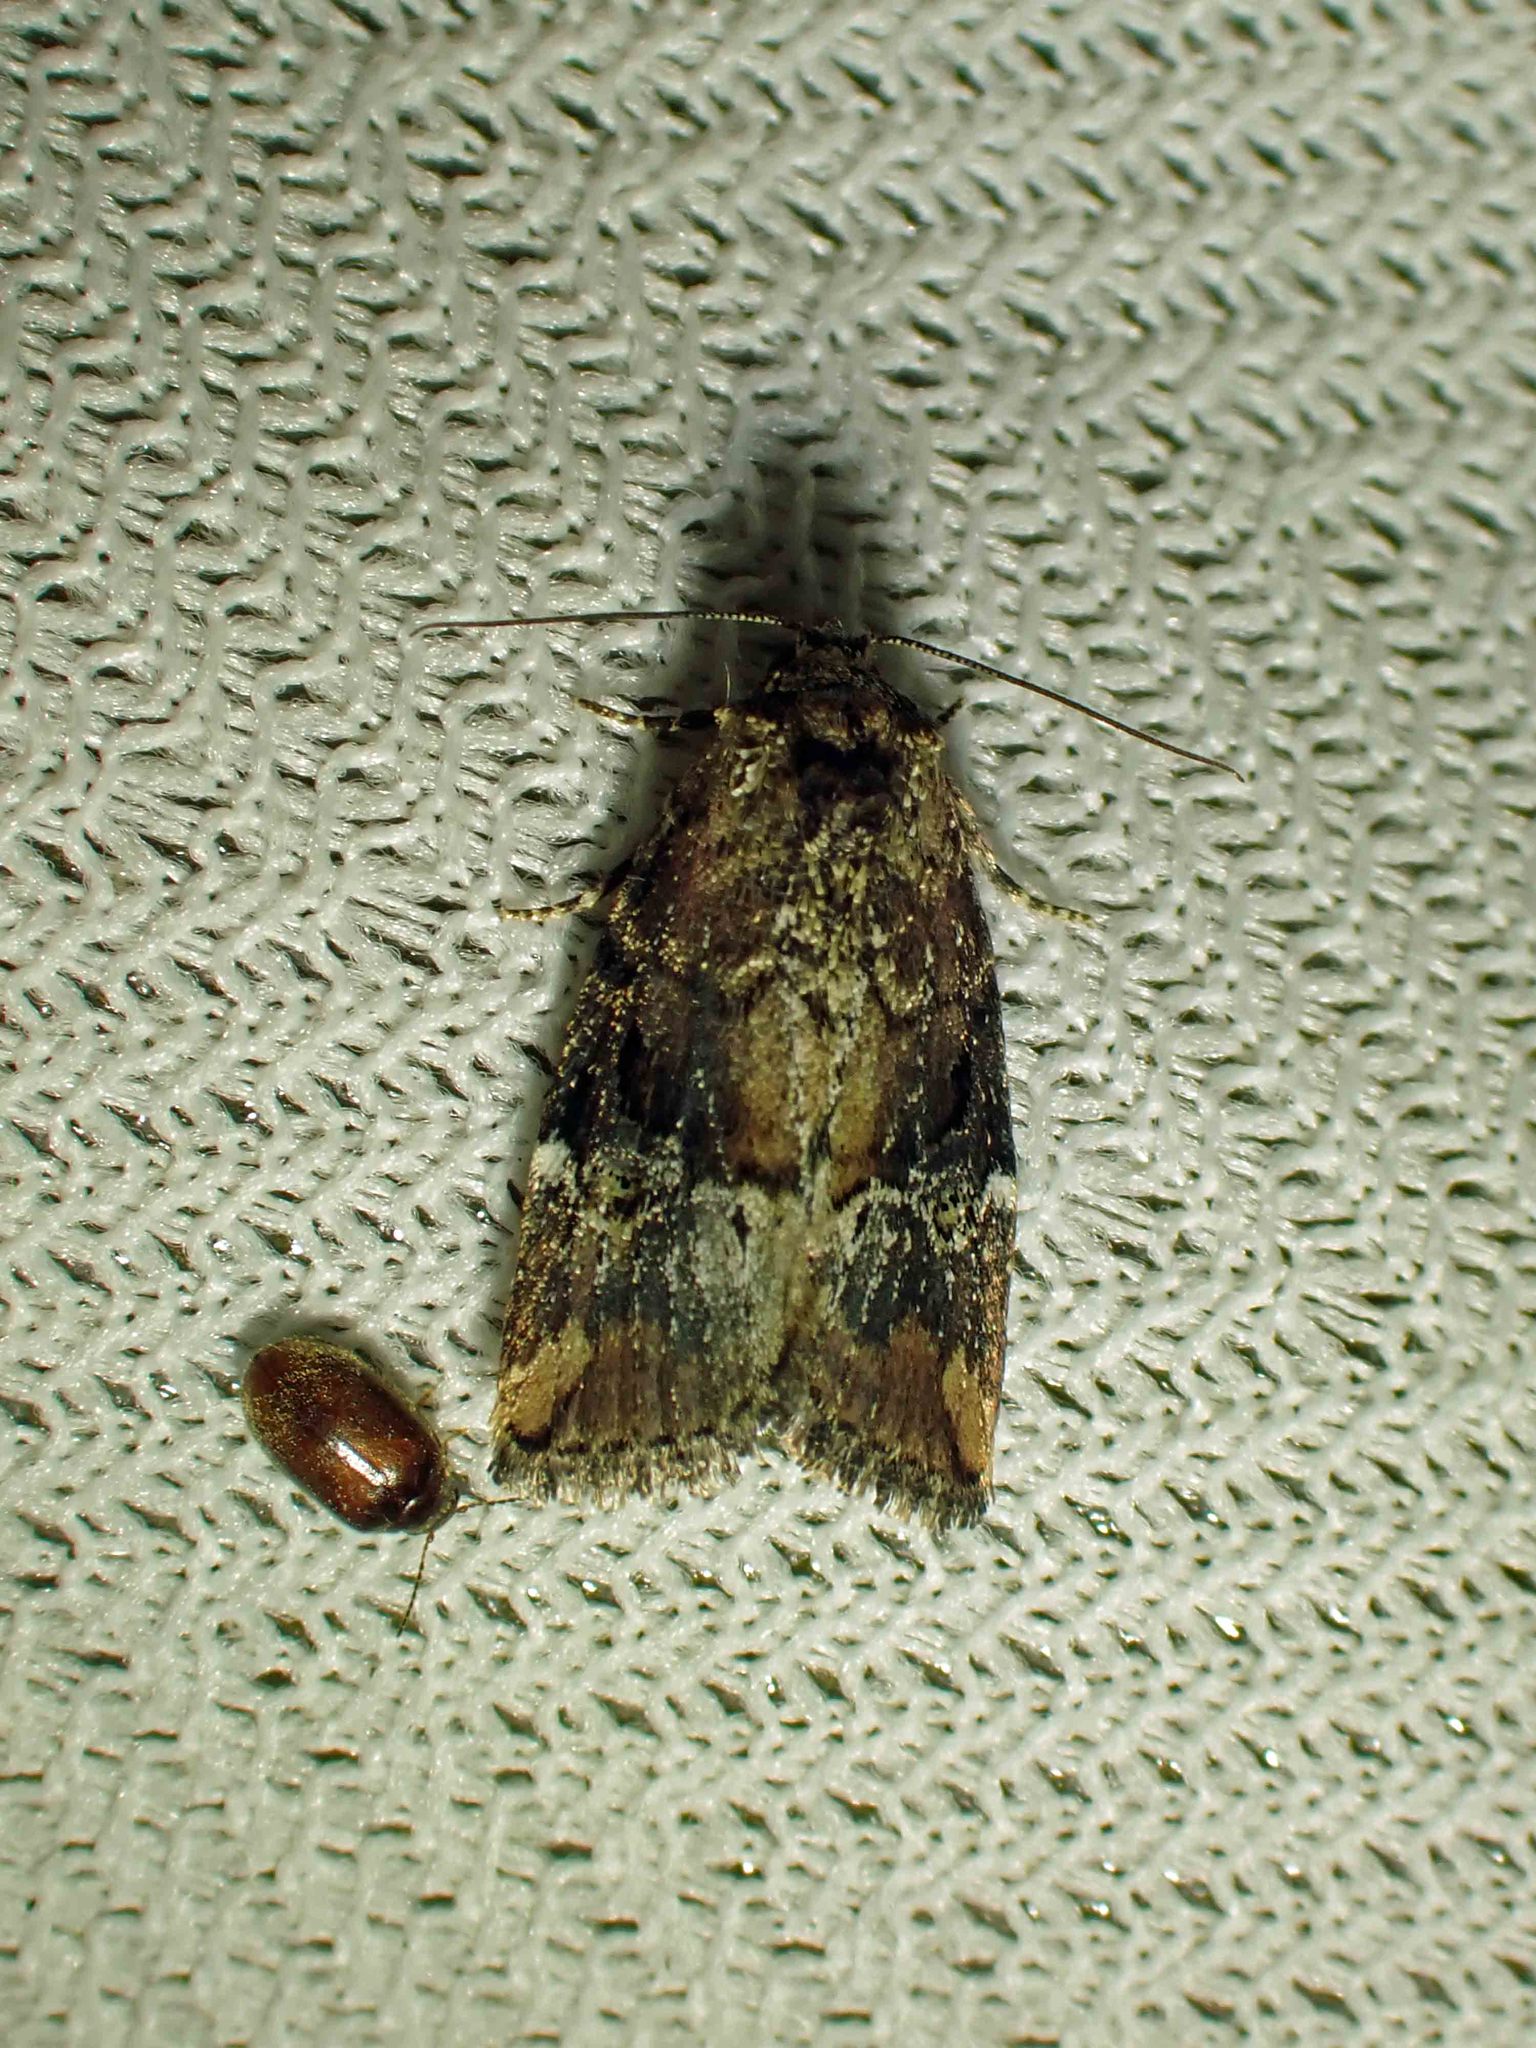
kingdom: Animalia
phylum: Arthropoda
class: Insecta
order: Lepidoptera
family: Noctuidae
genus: Elaphria
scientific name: Elaphria versicolor
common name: Fir harlequin
